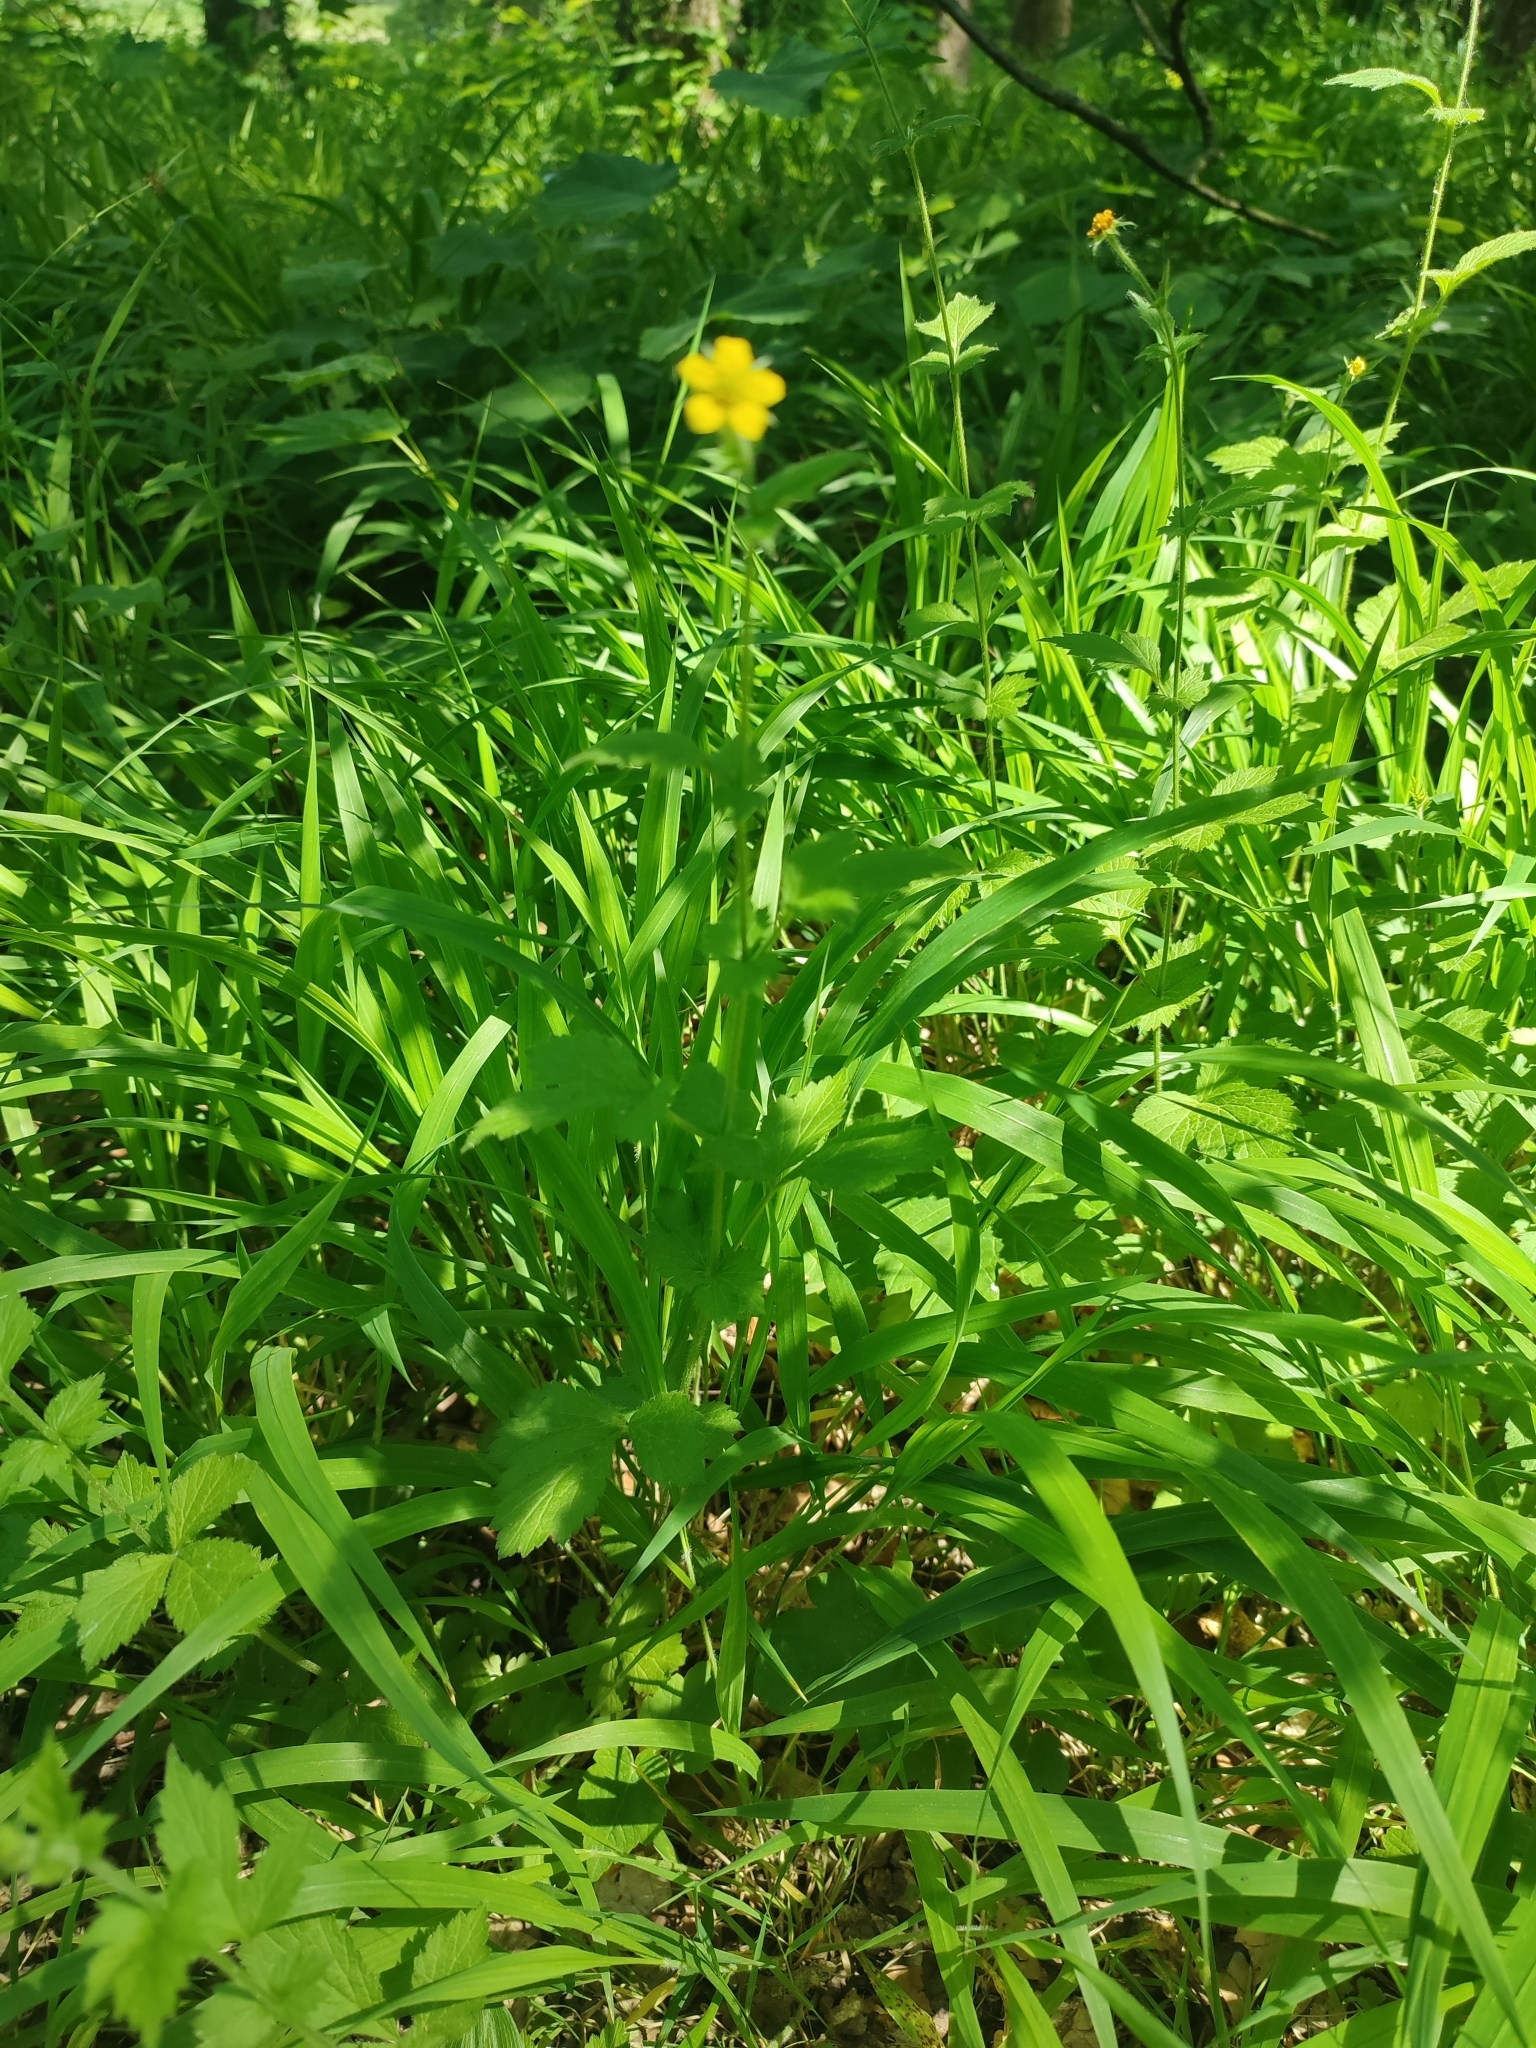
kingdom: Plantae
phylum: Tracheophyta
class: Magnoliopsida
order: Rosales
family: Rosaceae
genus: Geum
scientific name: Geum urbanum
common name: Wood avens
